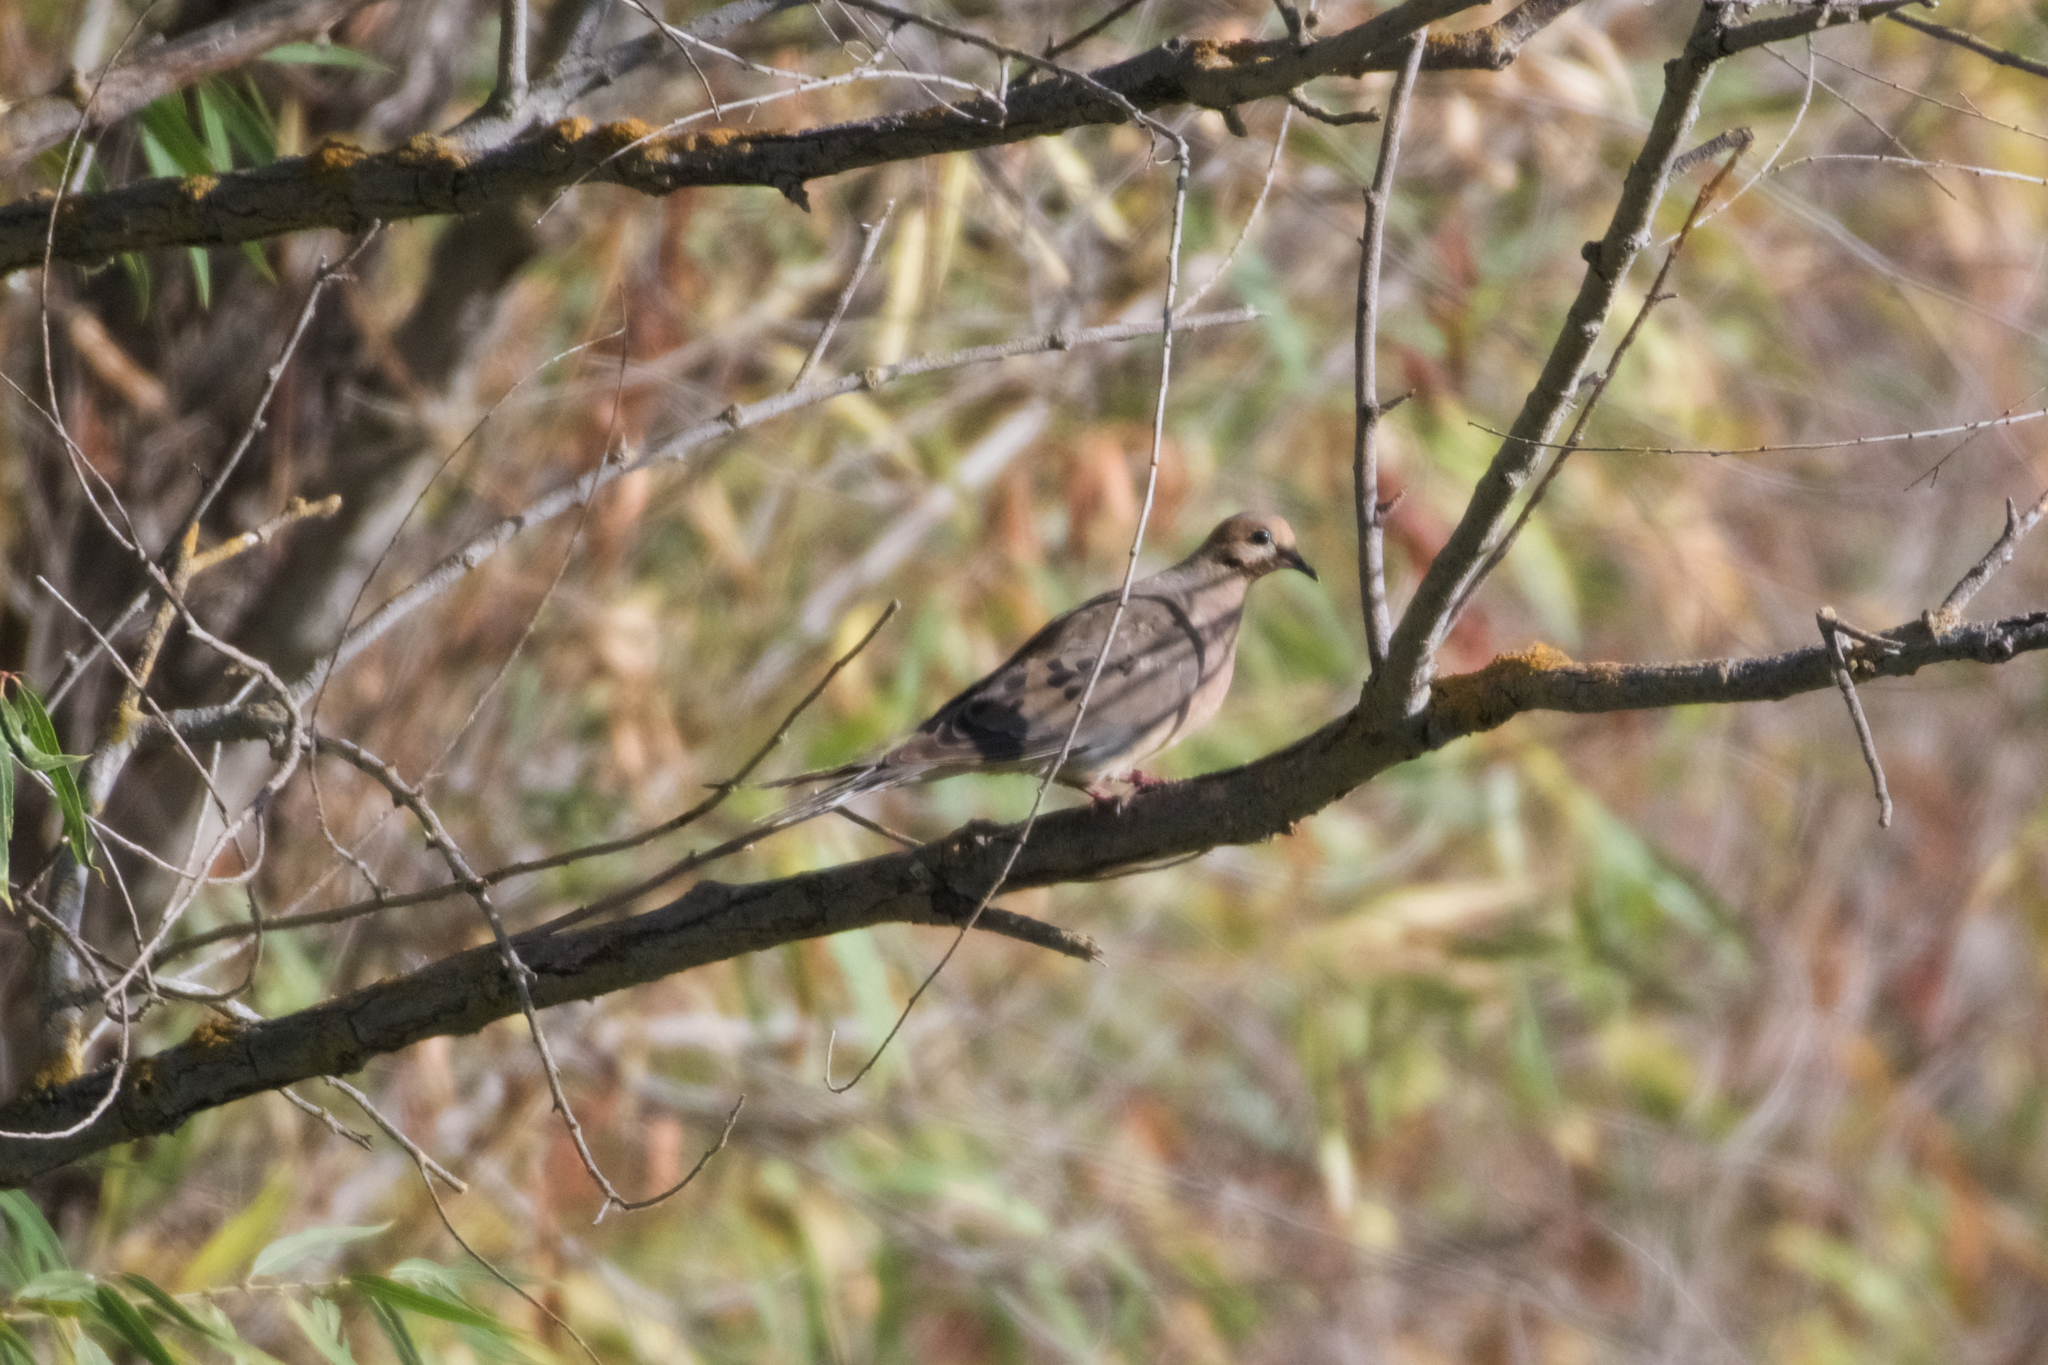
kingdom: Animalia
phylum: Chordata
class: Aves
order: Columbiformes
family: Columbidae
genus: Zenaida
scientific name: Zenaida macroura
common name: Mourning dove
